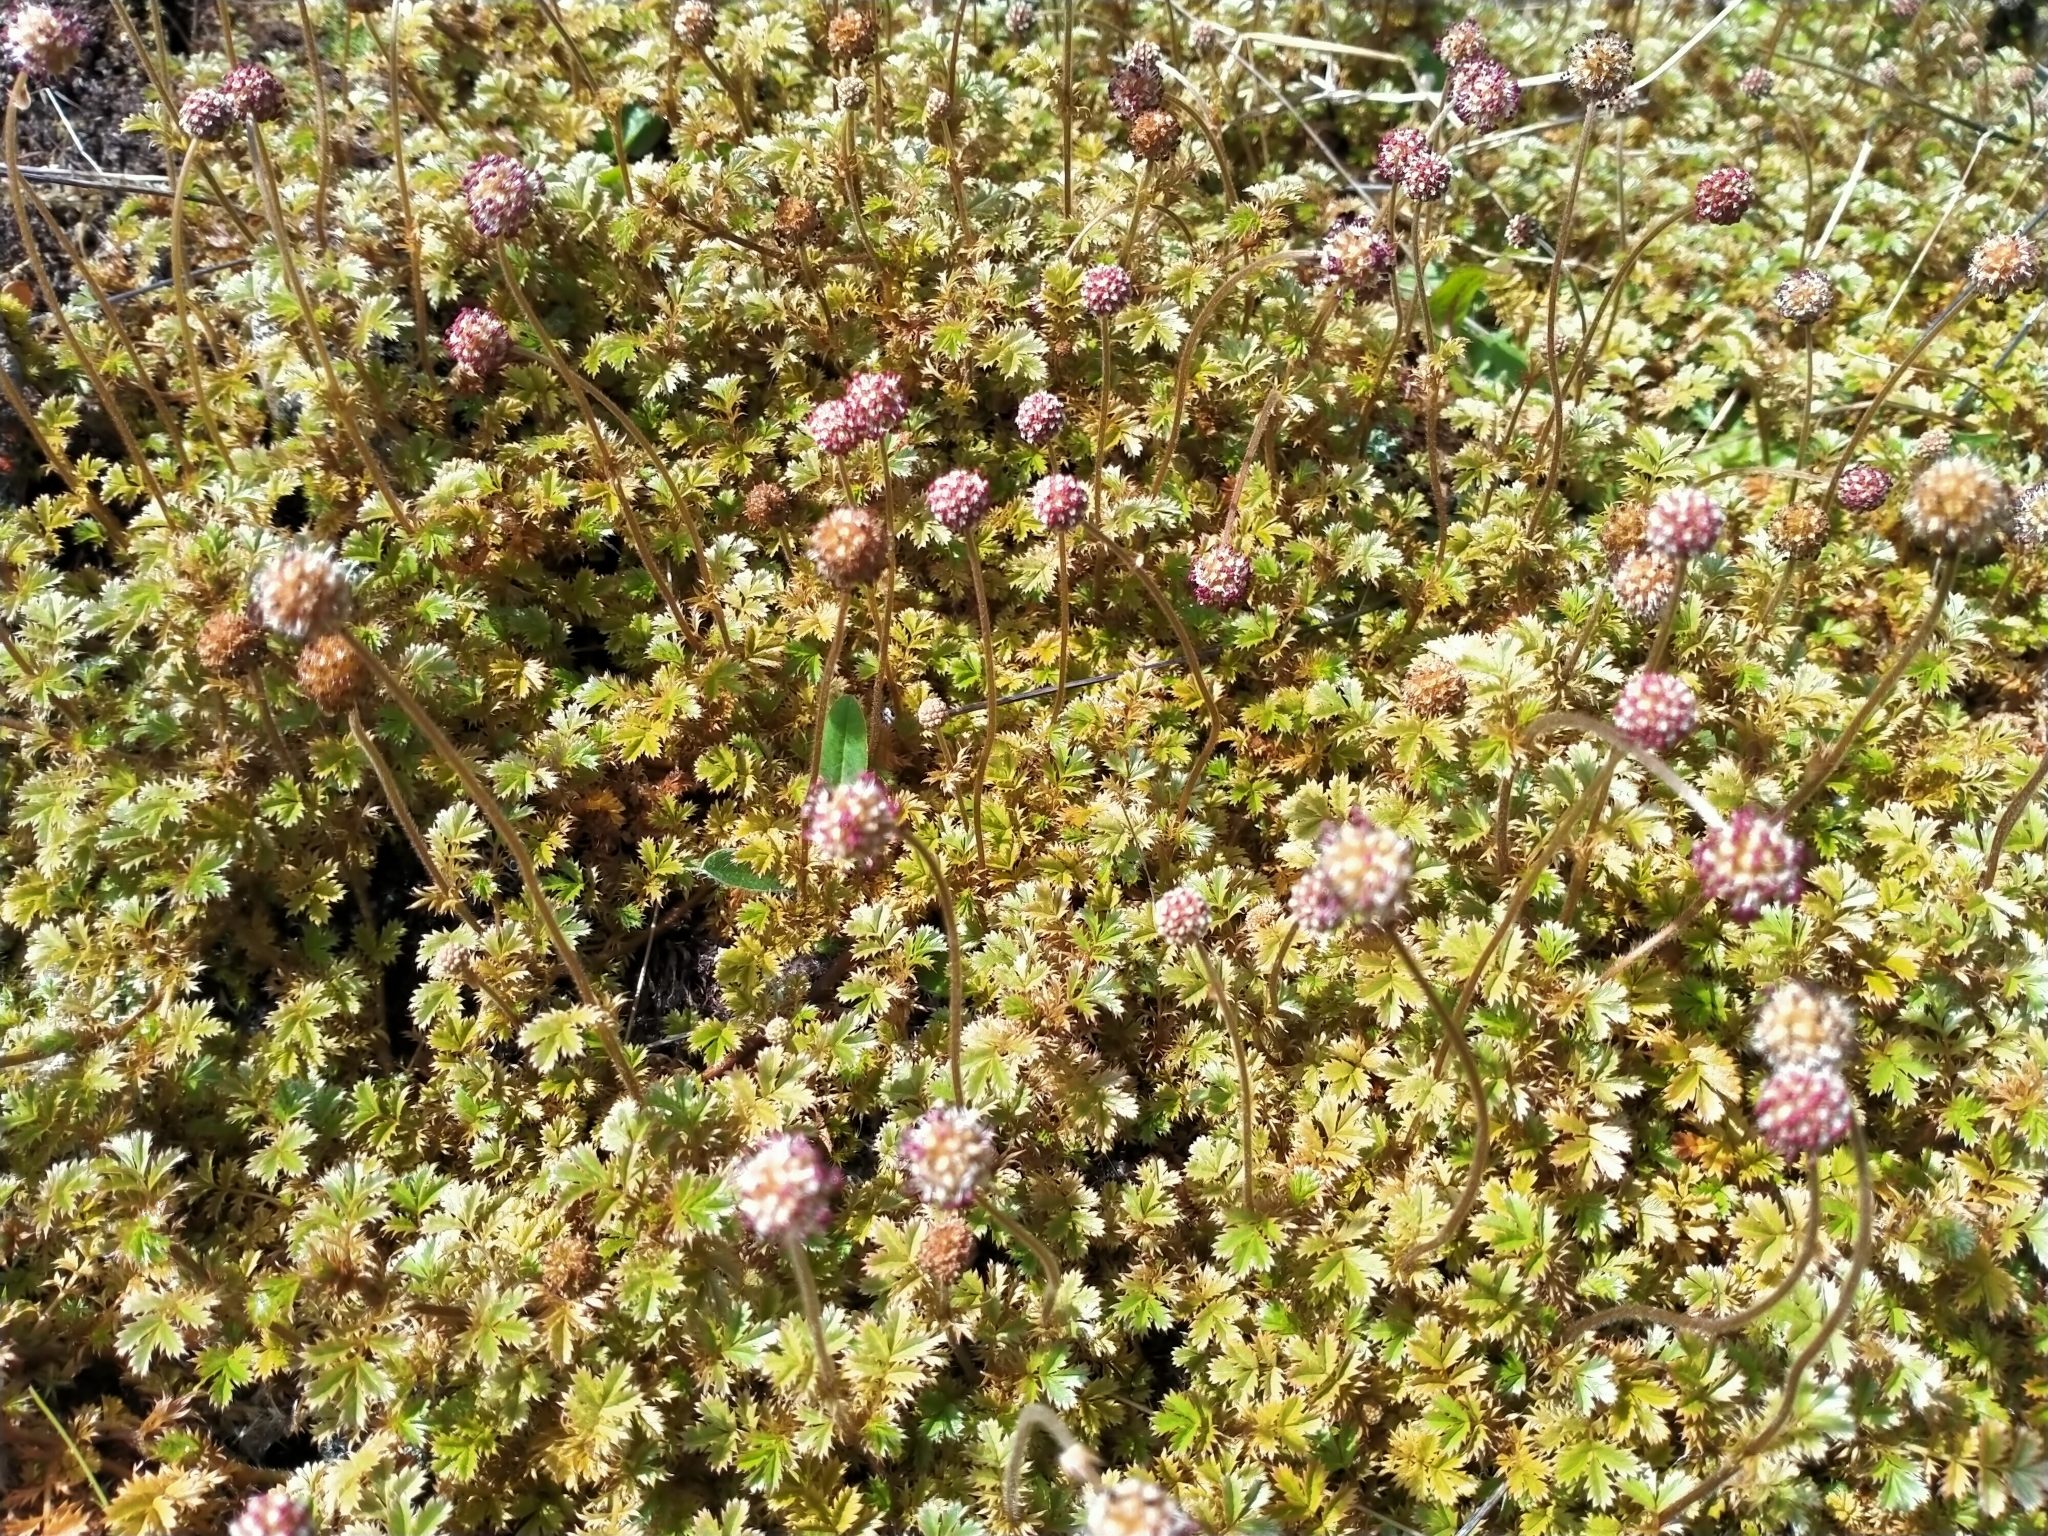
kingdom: Plantae
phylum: Tracheophyta
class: Magnoliopsida
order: Rosales
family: Rosaceae
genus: Acaena
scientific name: Acaena anserinifolia
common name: Bronze pirri-pirri-bur
